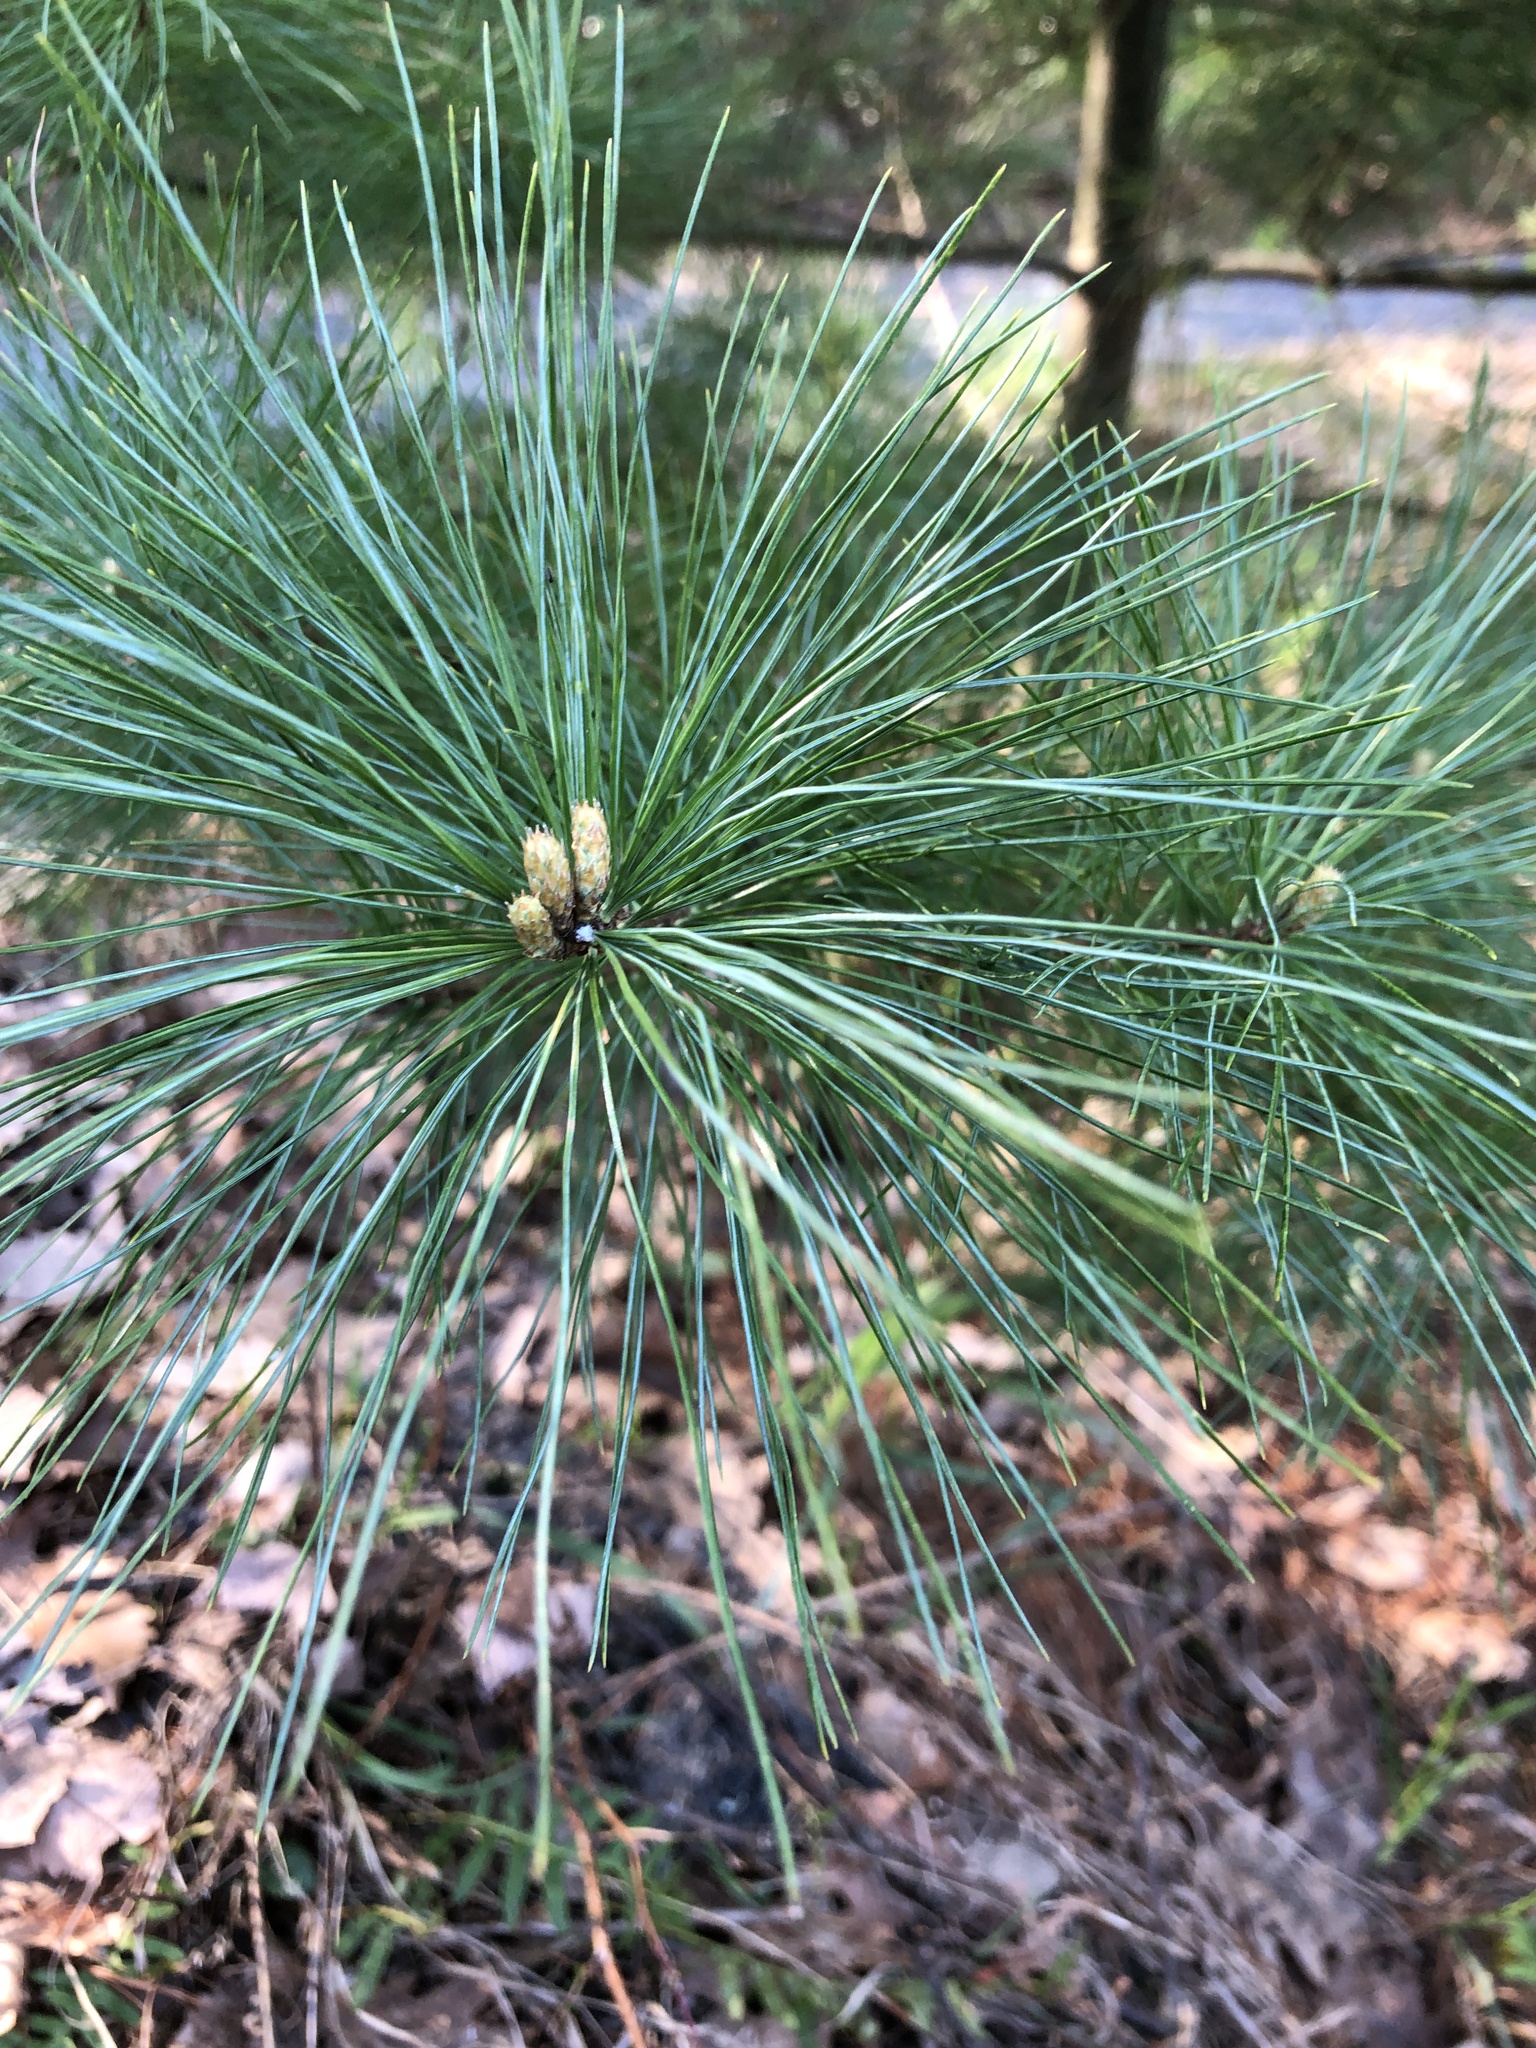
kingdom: Plantae
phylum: Tracheophyta
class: Pinopsida
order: Pinales
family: Pinaceae
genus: Pinus
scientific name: Pinus strobus
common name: Weymouth pine
